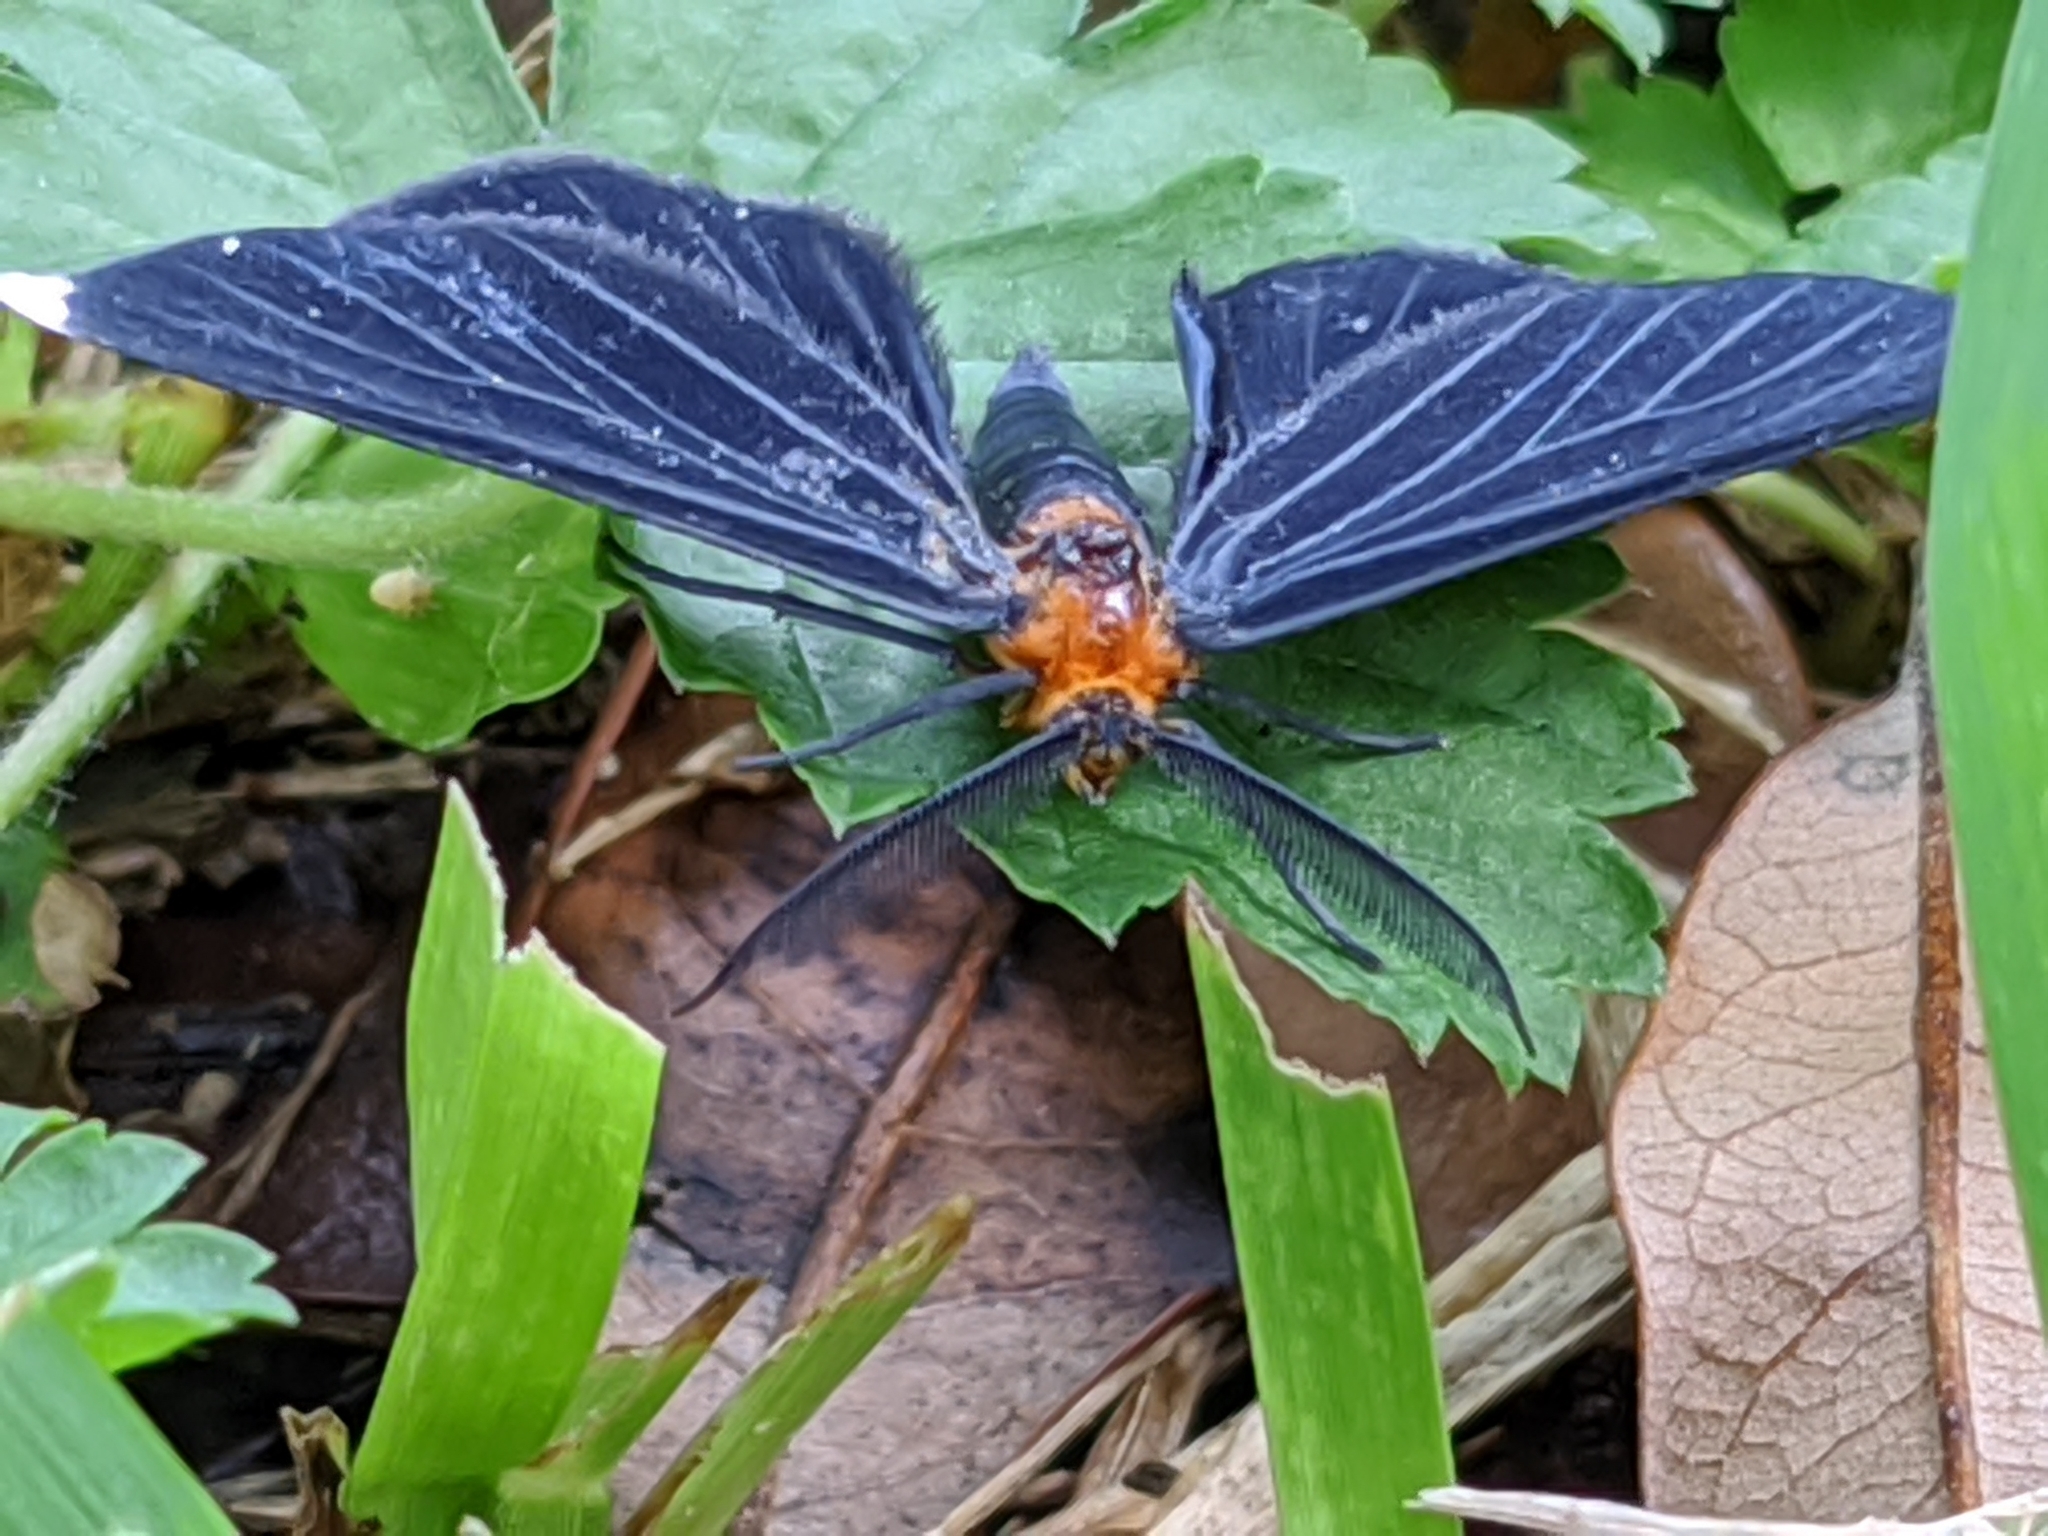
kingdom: Animalia
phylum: Arthropoda
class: Insecta
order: Lepidoptera
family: Geometridae
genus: Melanchroia
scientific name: Melanchroia chephise
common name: White-tipped black
